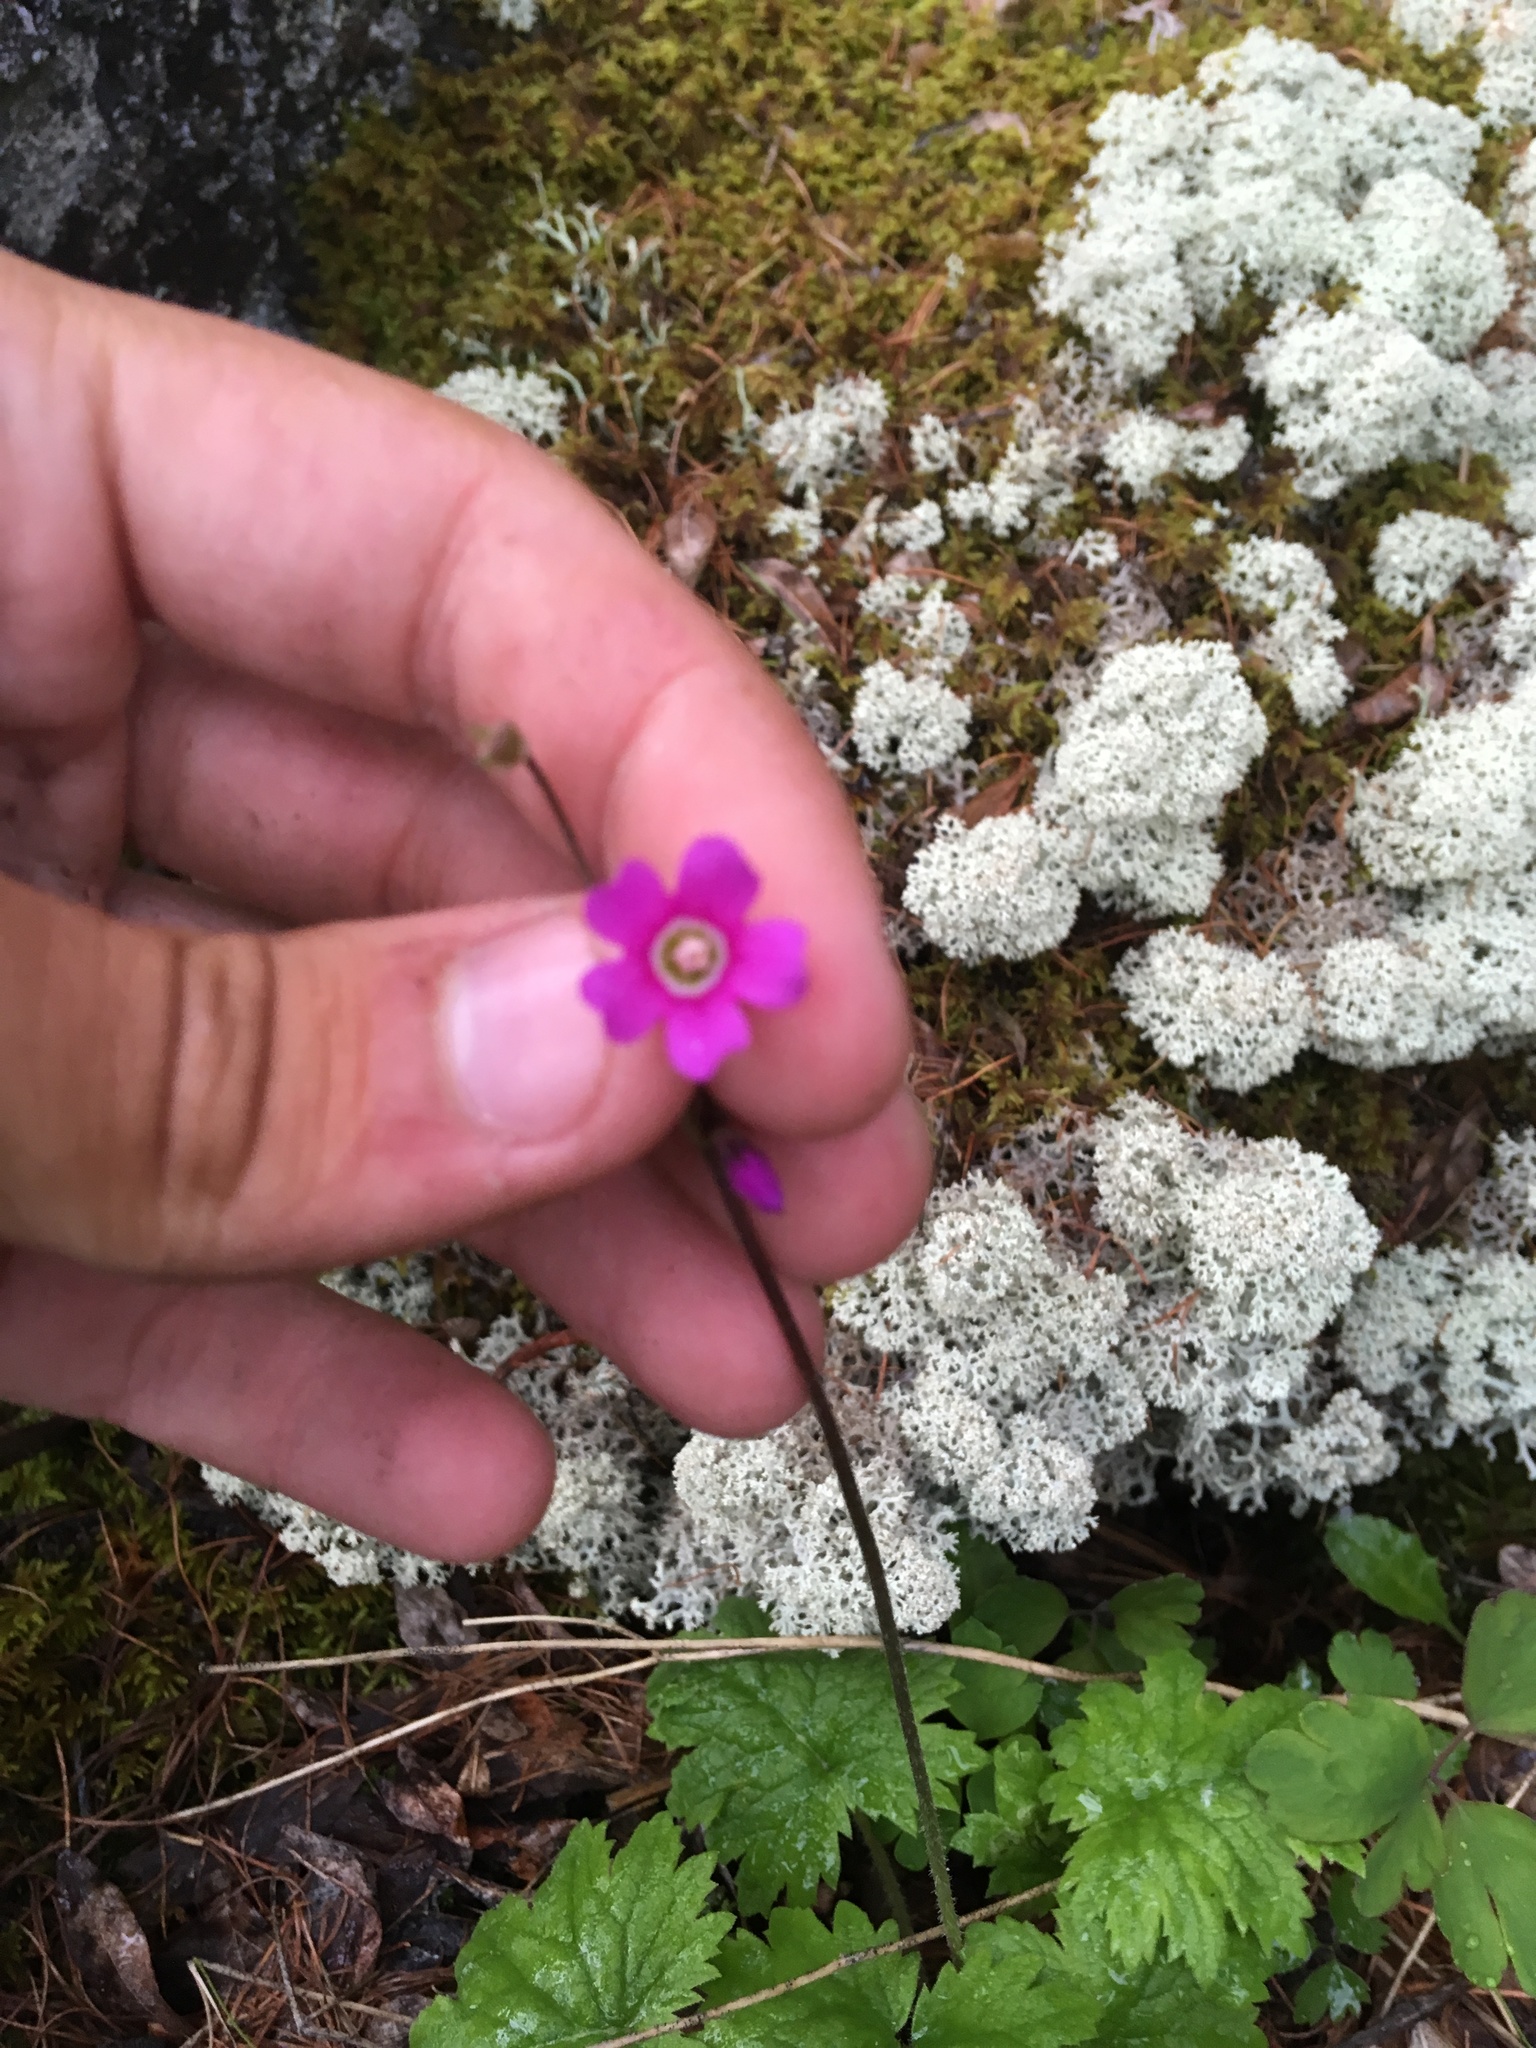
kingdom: Plantae
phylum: Tracheophyta
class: Magnoliopsida
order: Ericales
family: Primulaceae
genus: Primula
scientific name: Primula matthioli
